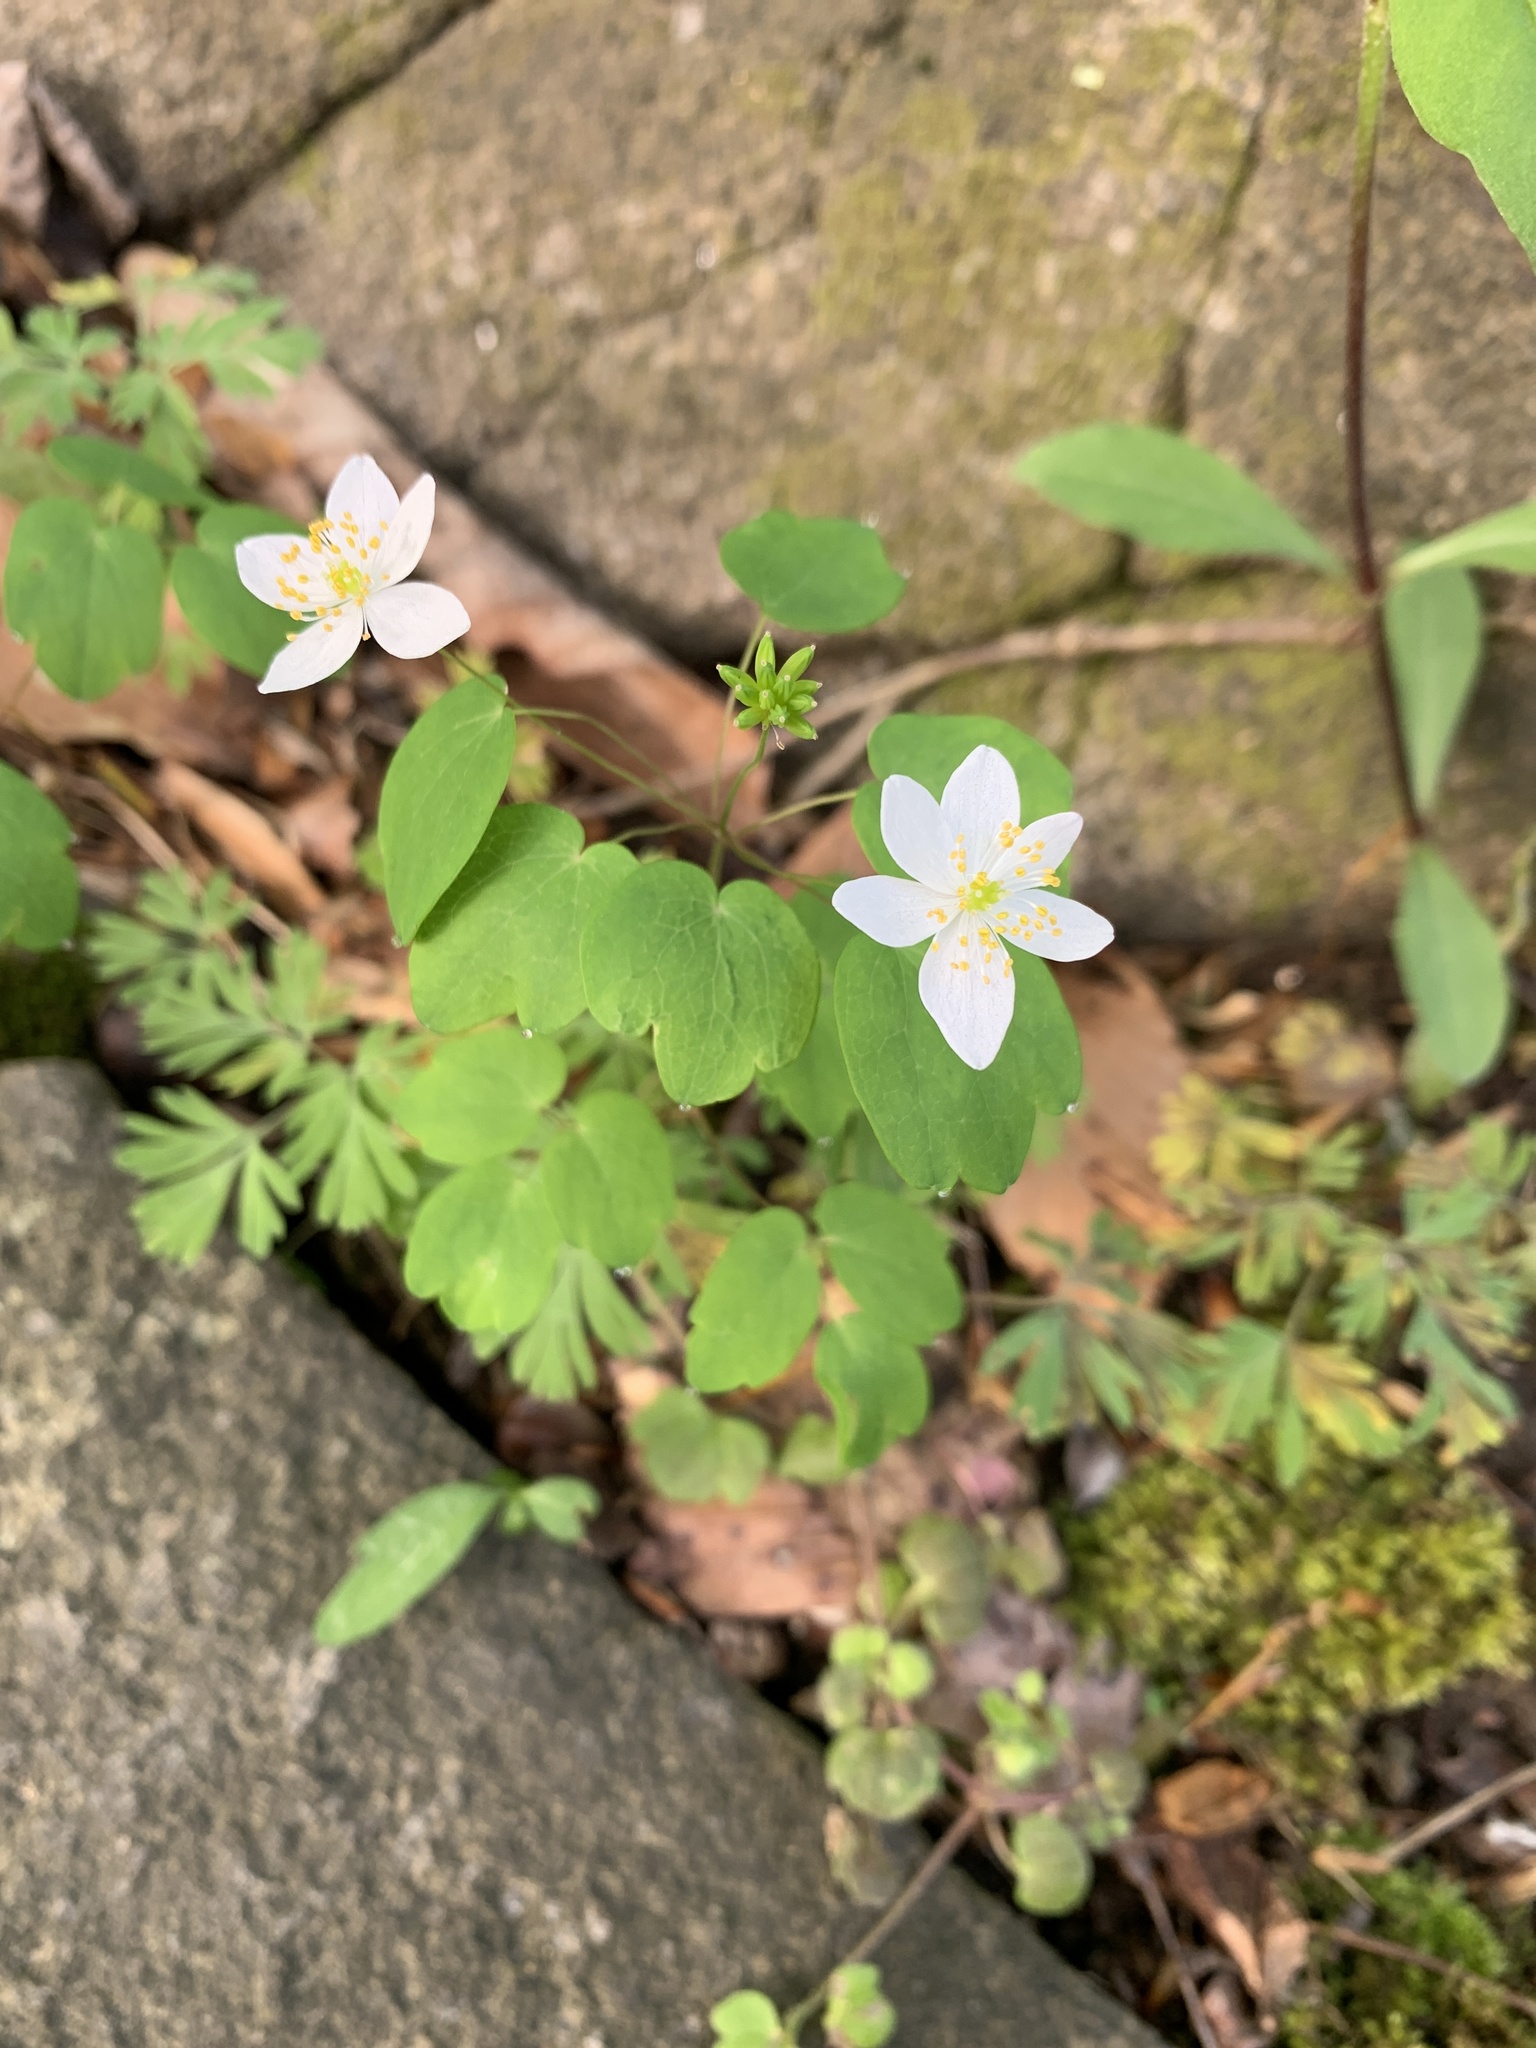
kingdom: Plantae
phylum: Tracheophyta
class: Magnoliopsida
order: Ranunculales
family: Ranunculaceae
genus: Thalictrum
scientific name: Thalictrum thalictroides
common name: Rue-anemone
